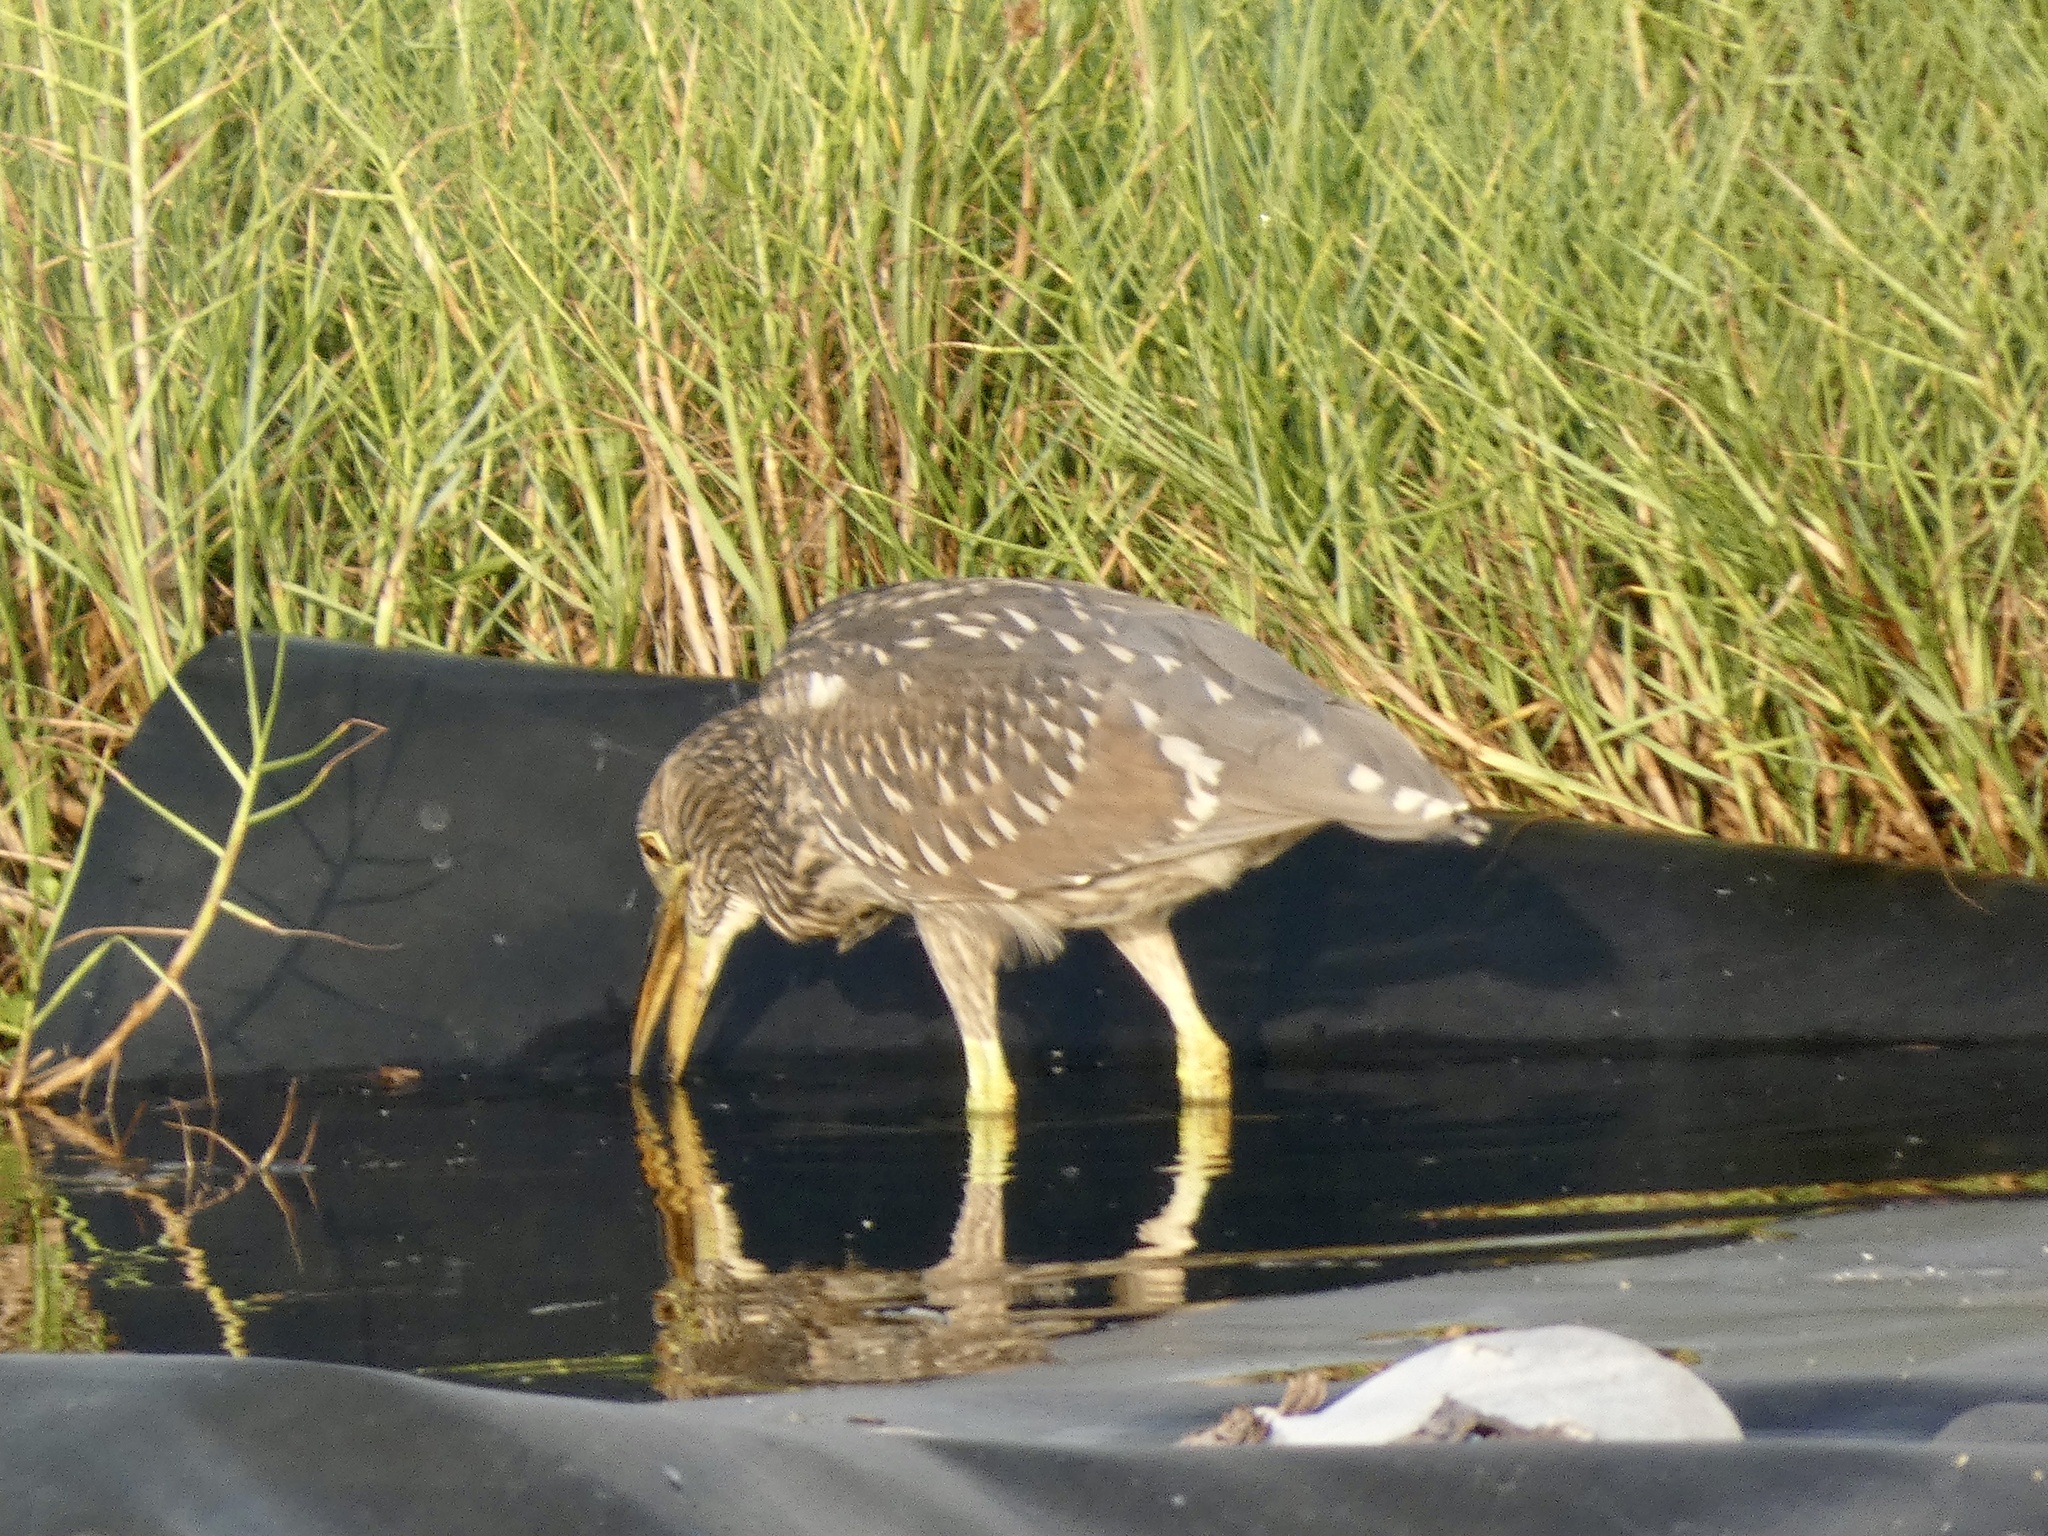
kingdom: Animalia
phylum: Chordata
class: Aves
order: Pelecaniformes
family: Ardeidae
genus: Nycticorax
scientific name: Nycticorax nycticorax
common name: Black-crowned night heron
